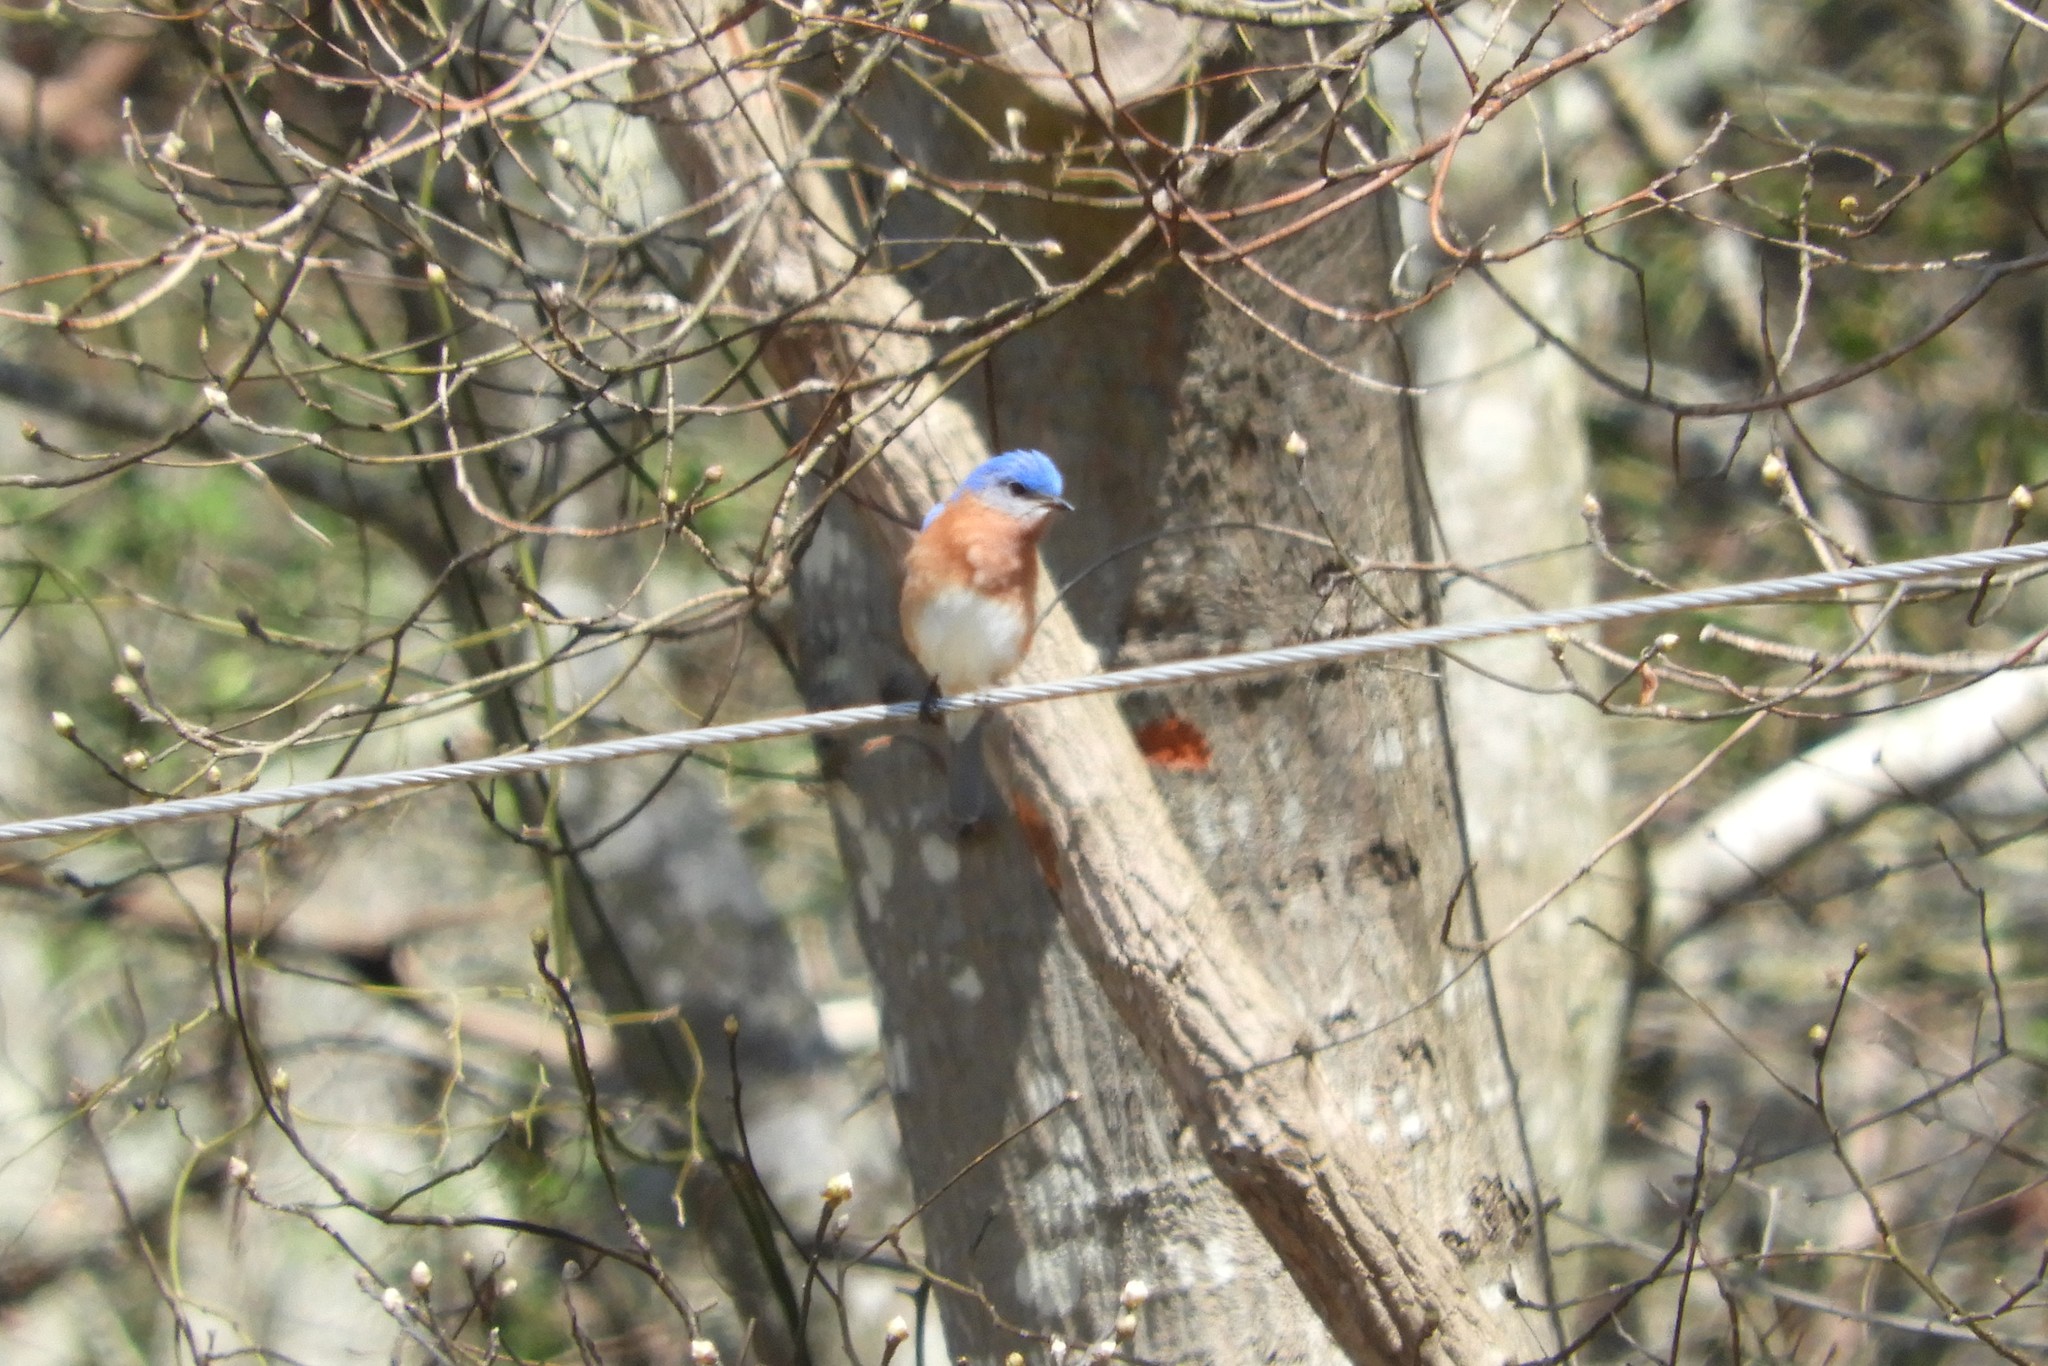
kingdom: Animalia
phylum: Chordata
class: Aves
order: Passeriformes
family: Turdidae
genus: Sialia
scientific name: Sialia sialis
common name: Eastern bluebird
